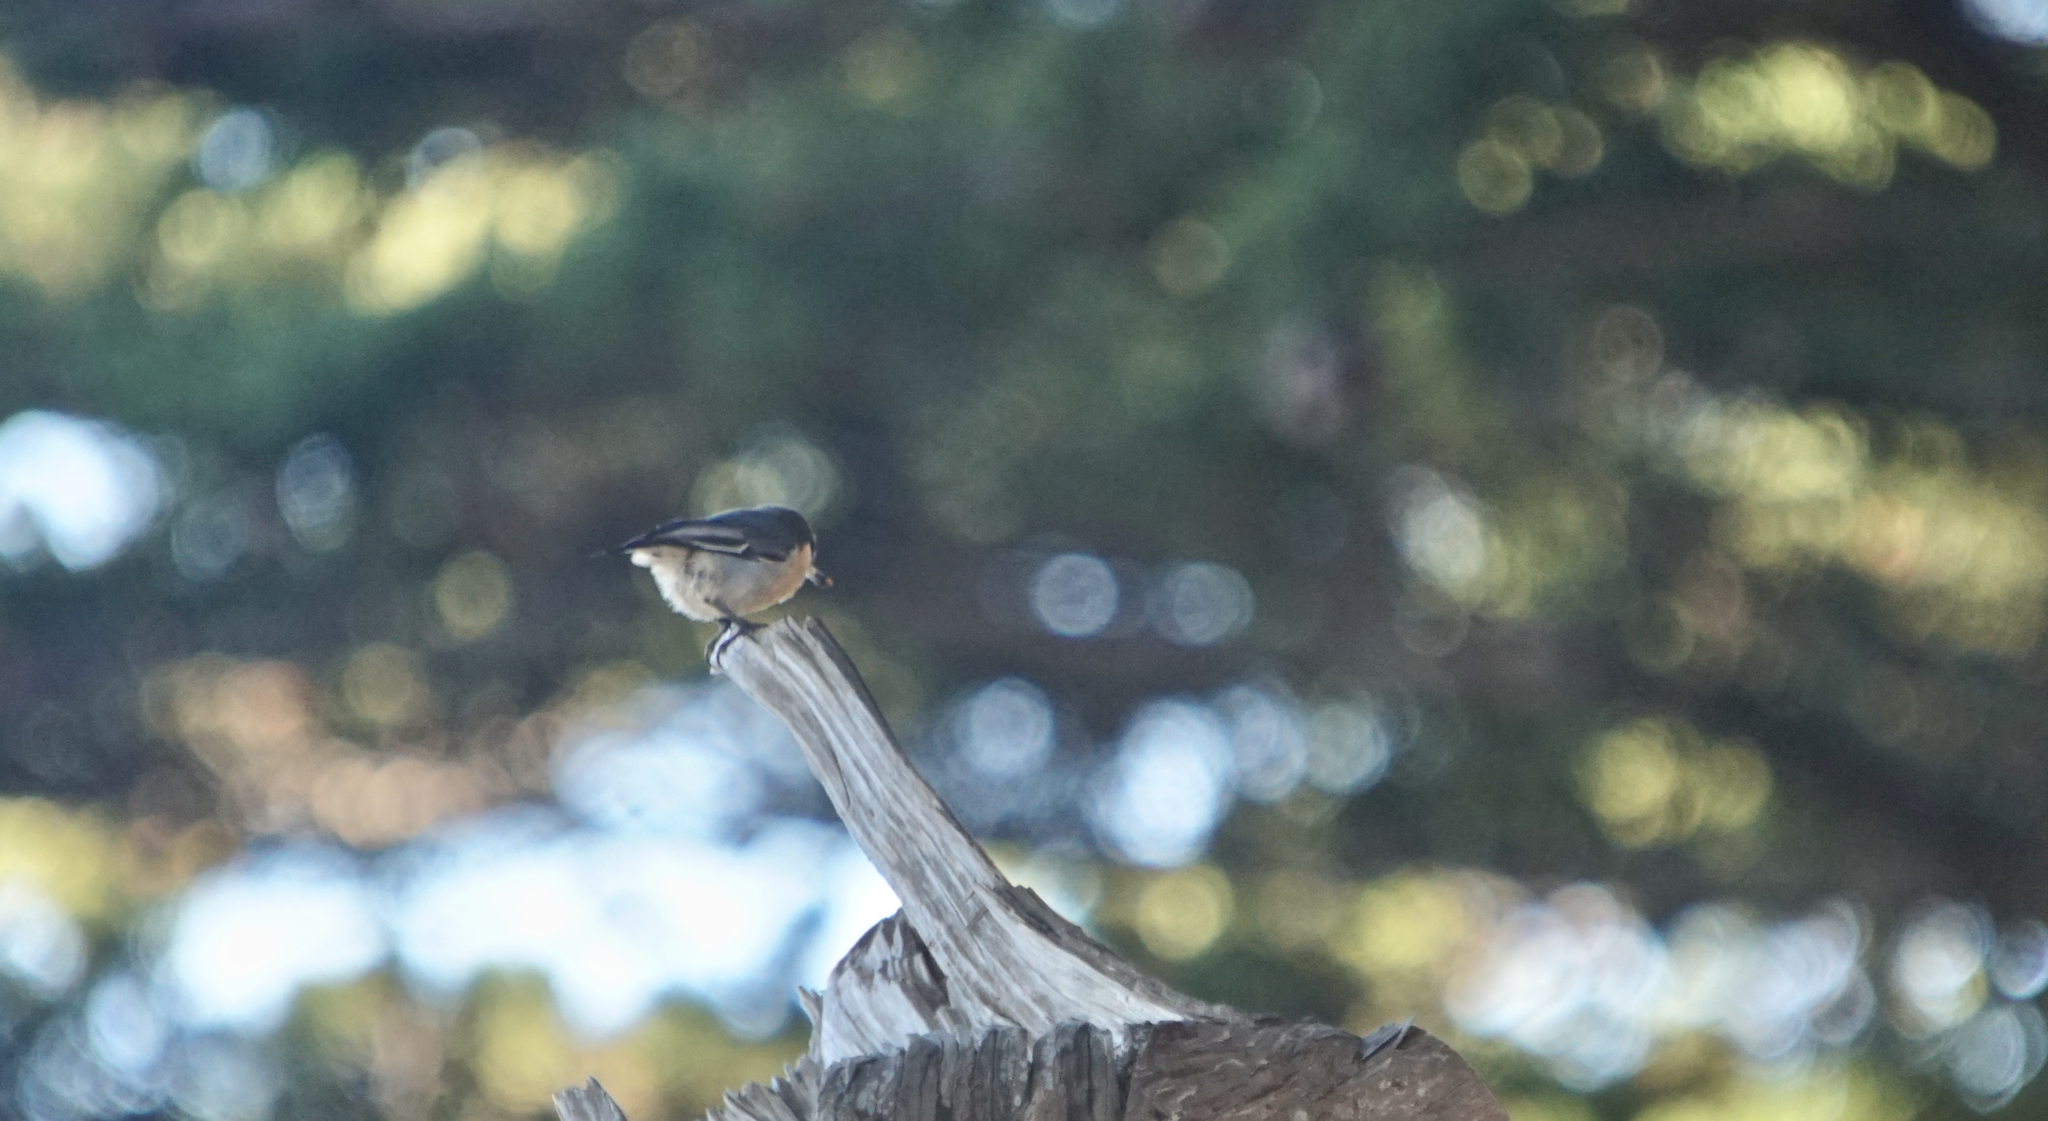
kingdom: Animalia
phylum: Chordata
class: Aves
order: Passeriformes
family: Sittidae
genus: Sitta
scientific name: Sitta pygmaea
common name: Pygmy nuthatch
